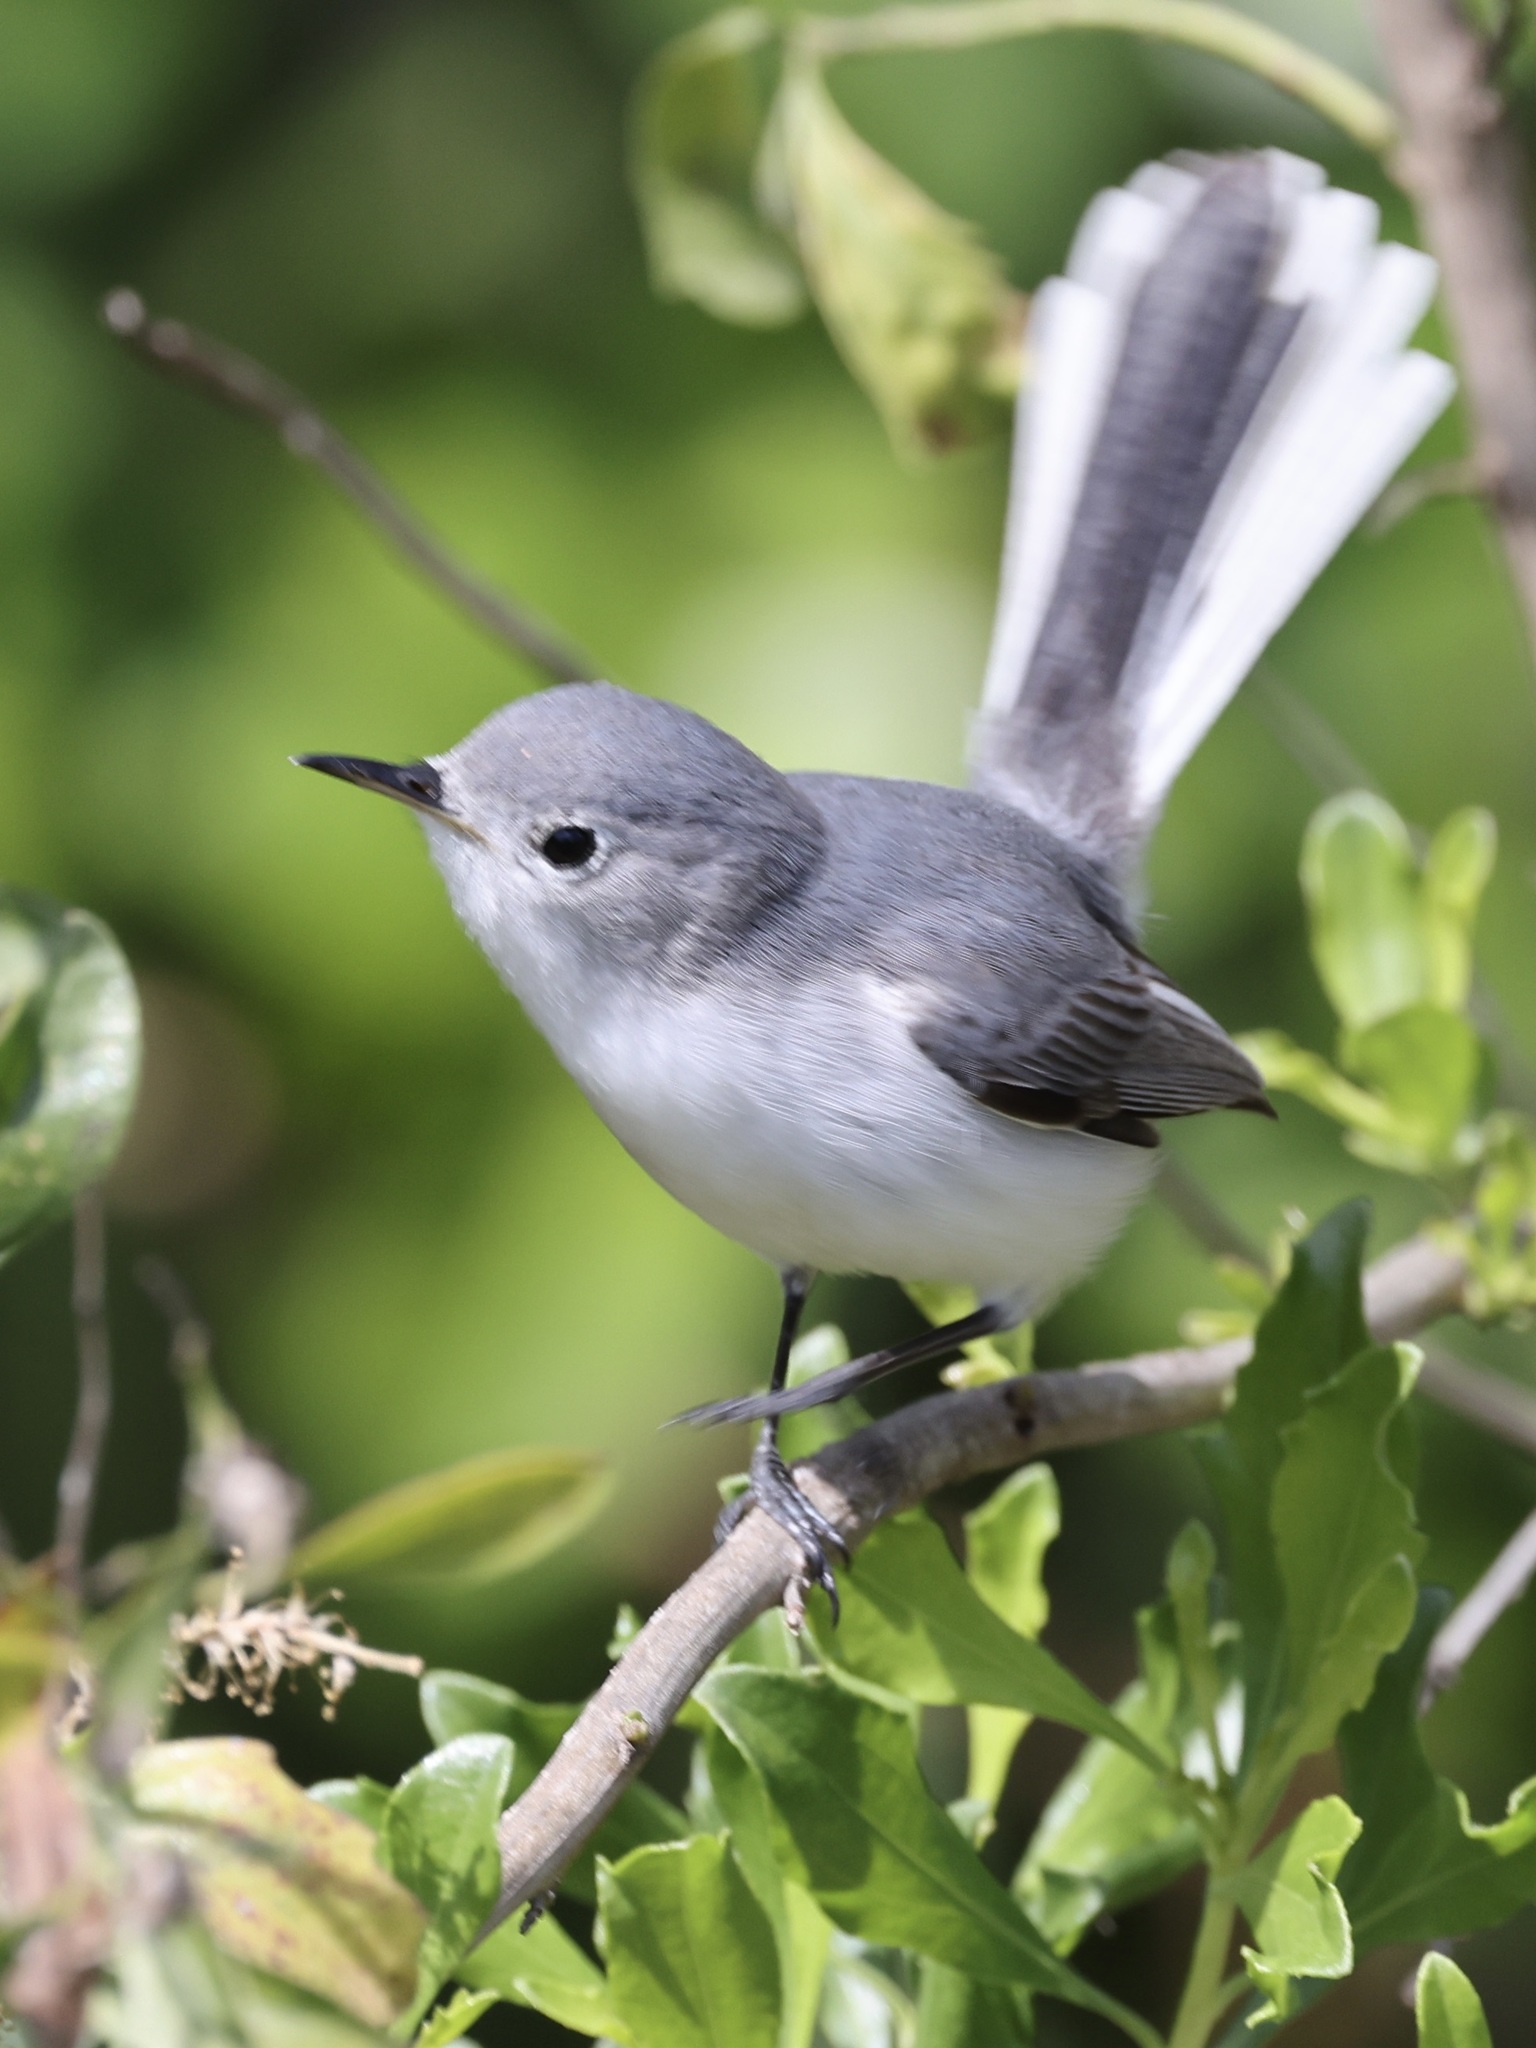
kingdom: Animalia
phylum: Chordata
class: Aves
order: Passeriformes
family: Polioptilidae
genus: Polioptila
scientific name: Polioptila caerulea
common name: Blue-gray gnatcatcher
